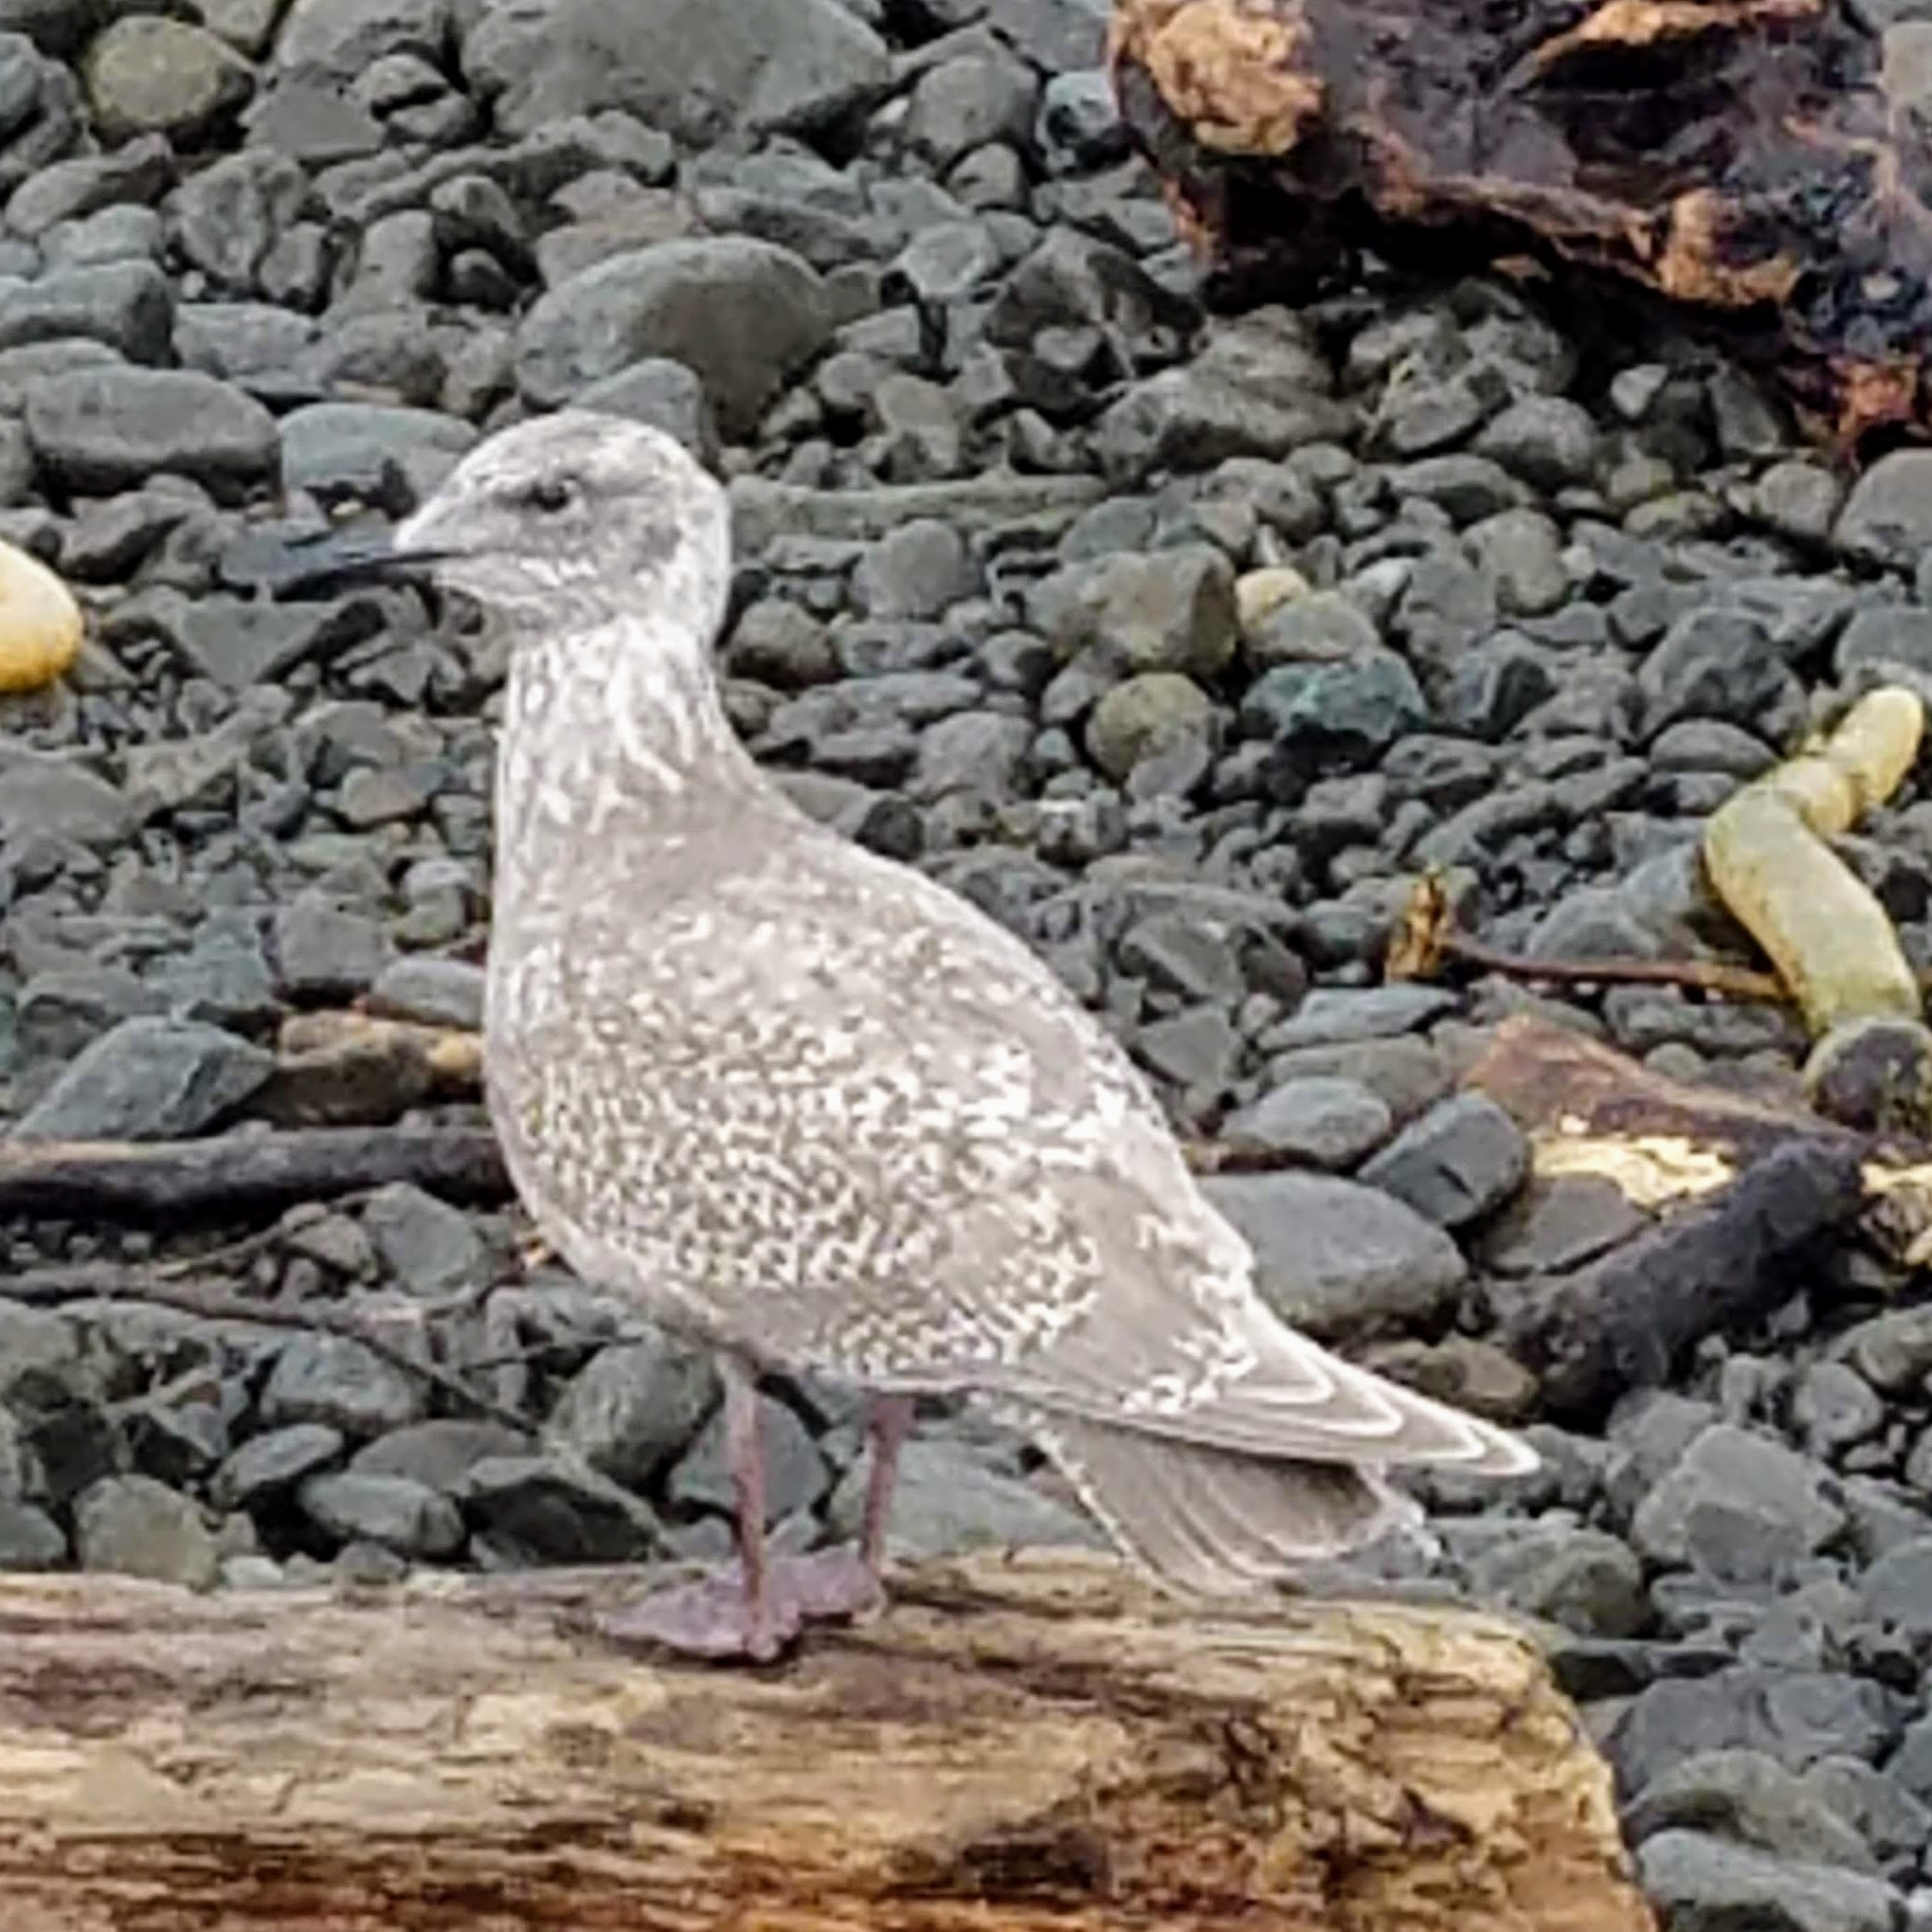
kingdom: Animalia
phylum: Chordata
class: Aves
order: Charadriiformes
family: Laridae
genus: Larus
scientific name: Larus glaucescens
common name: Glaucous-winged gull
